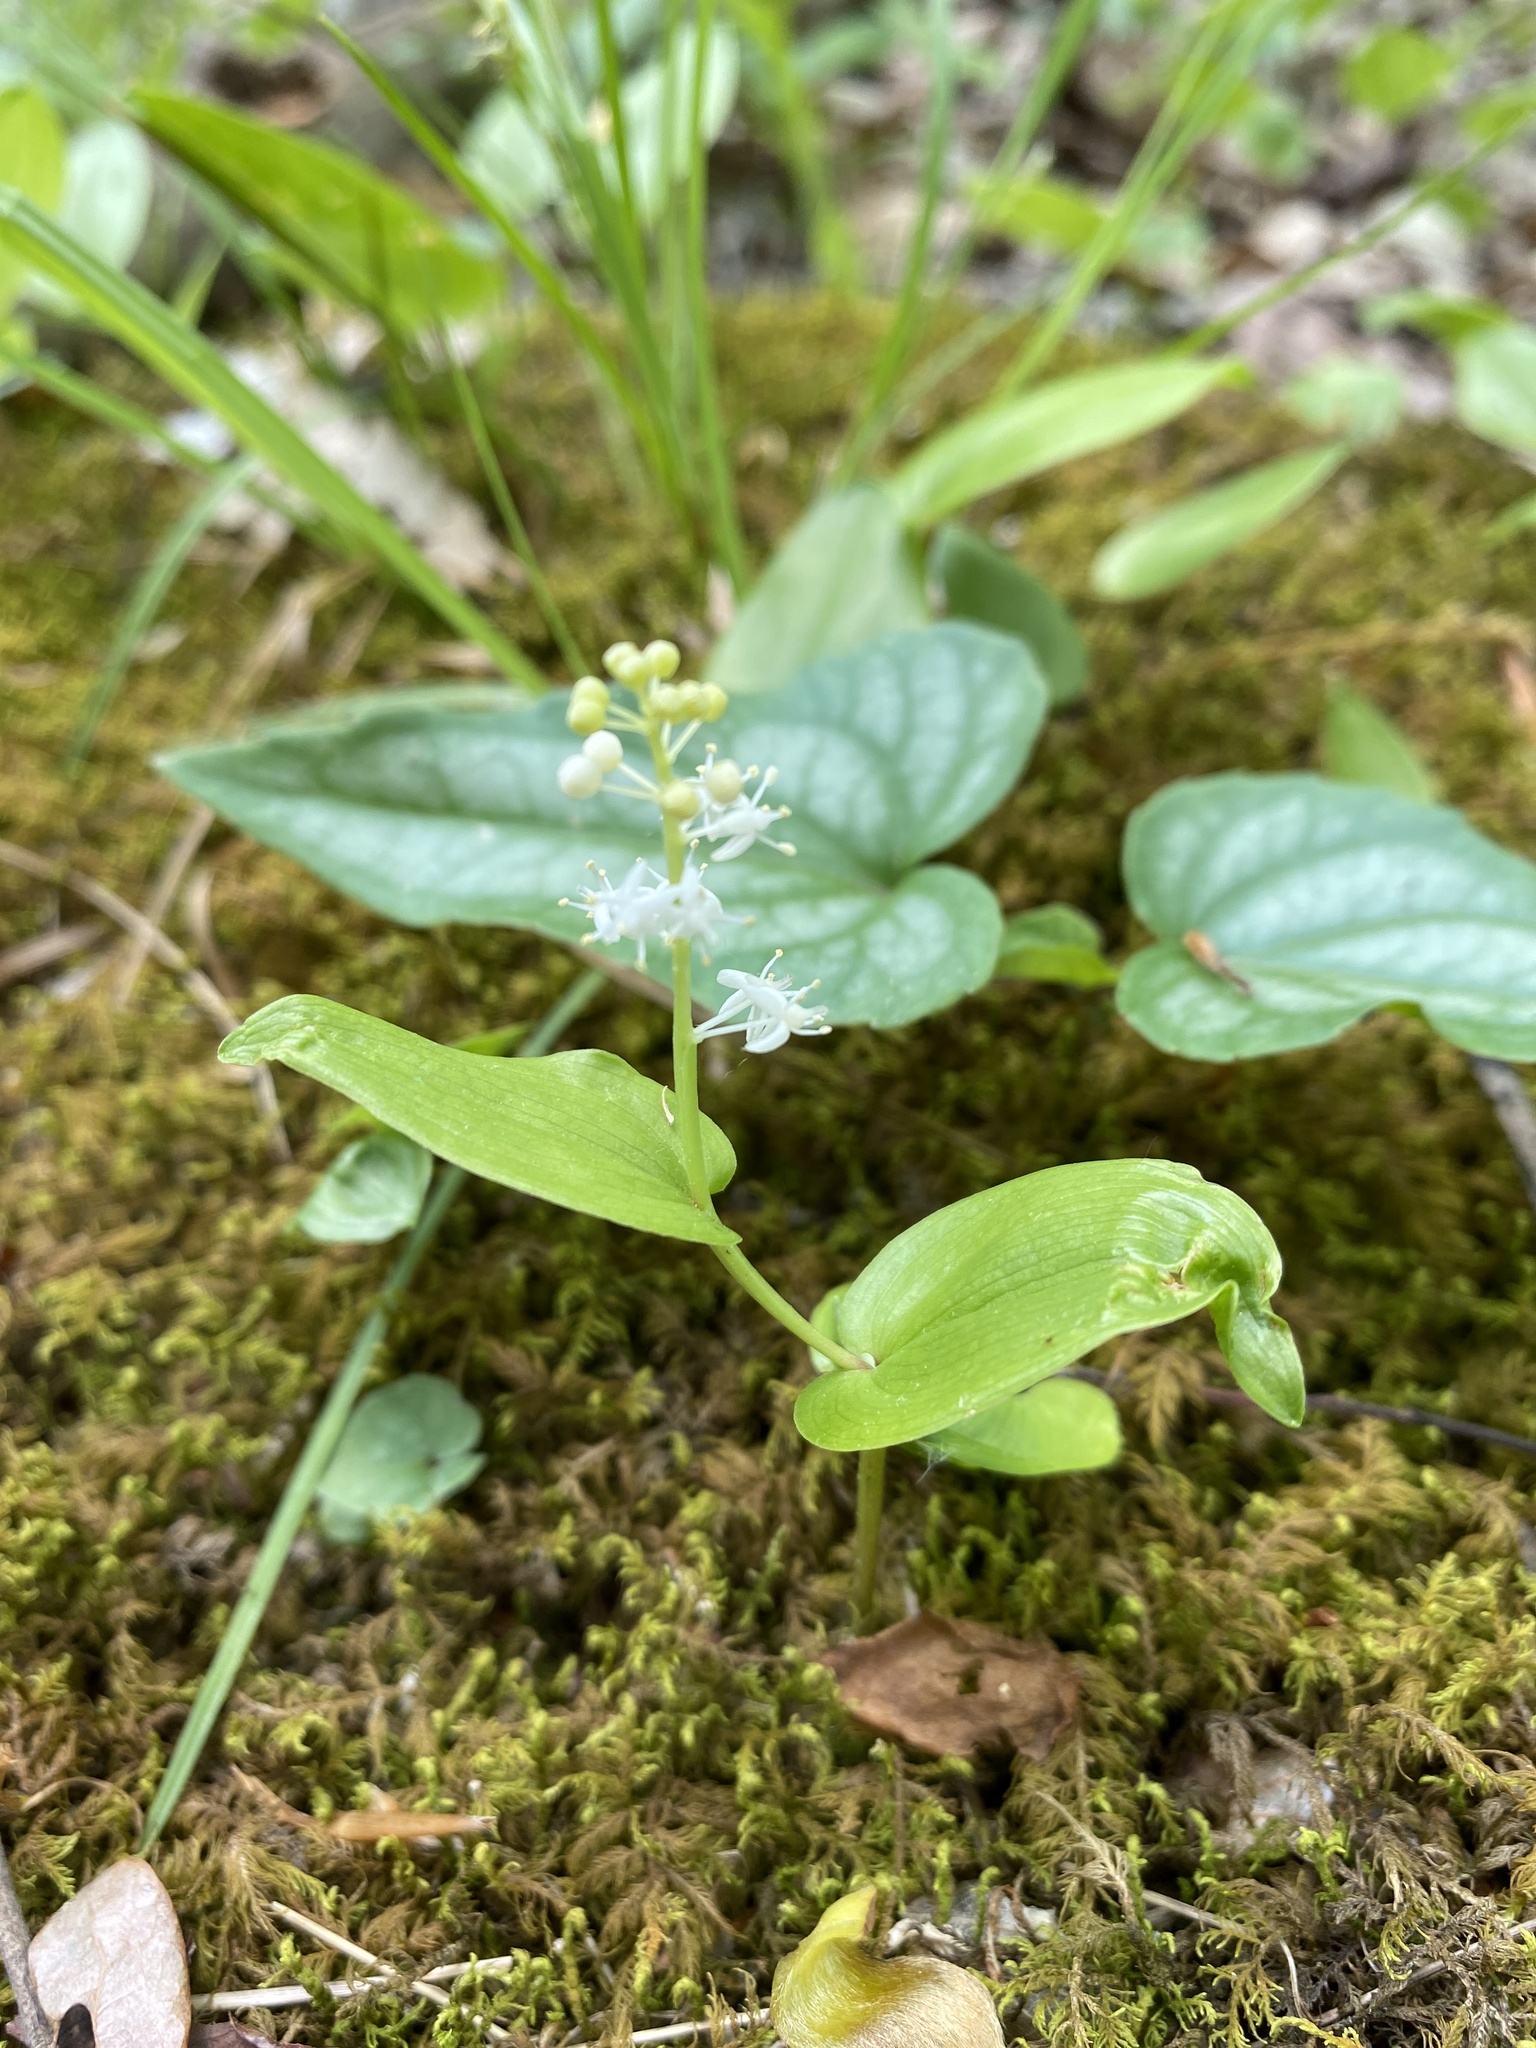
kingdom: Plantae
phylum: Tracheophyta
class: Liliopsida
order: Asparagales
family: Asparagaceae
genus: Maianthemum
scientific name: Maianthemum canadense
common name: False lily-of-the-valley
